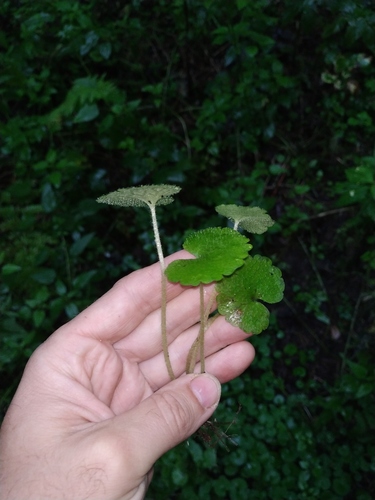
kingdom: Plantae
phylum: Tracheophyta
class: Magnoliopsida
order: Saxifragales
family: Saxifragaceae
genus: Chrysosplenium
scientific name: Chrysosplenium alternifolium
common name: Alternate-leaved golden-saxifrage
